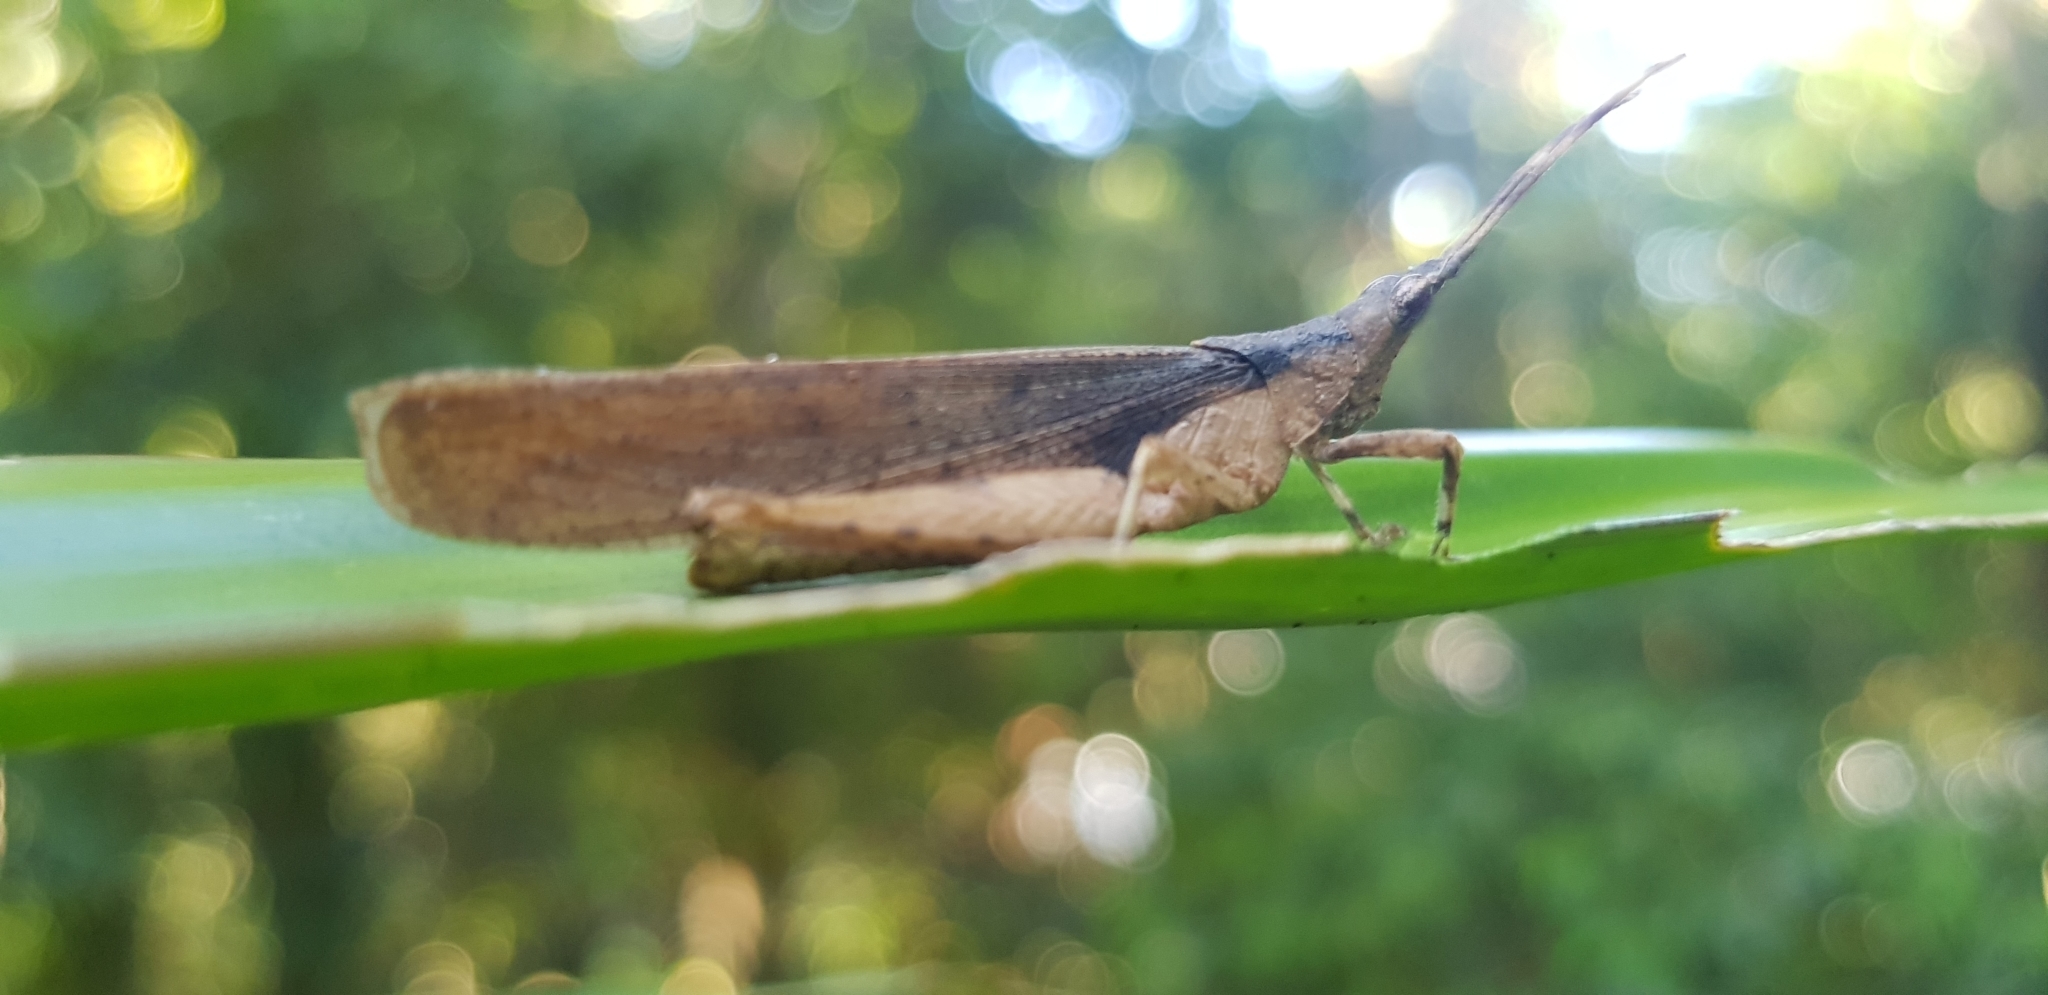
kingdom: Animalia
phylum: Arthropoda
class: Insecta
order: Orthoptera
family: Pyrgomorphidae
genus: Desmoptera
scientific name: Desmoptera truncatipennis
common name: Large forest pyrgomorph
